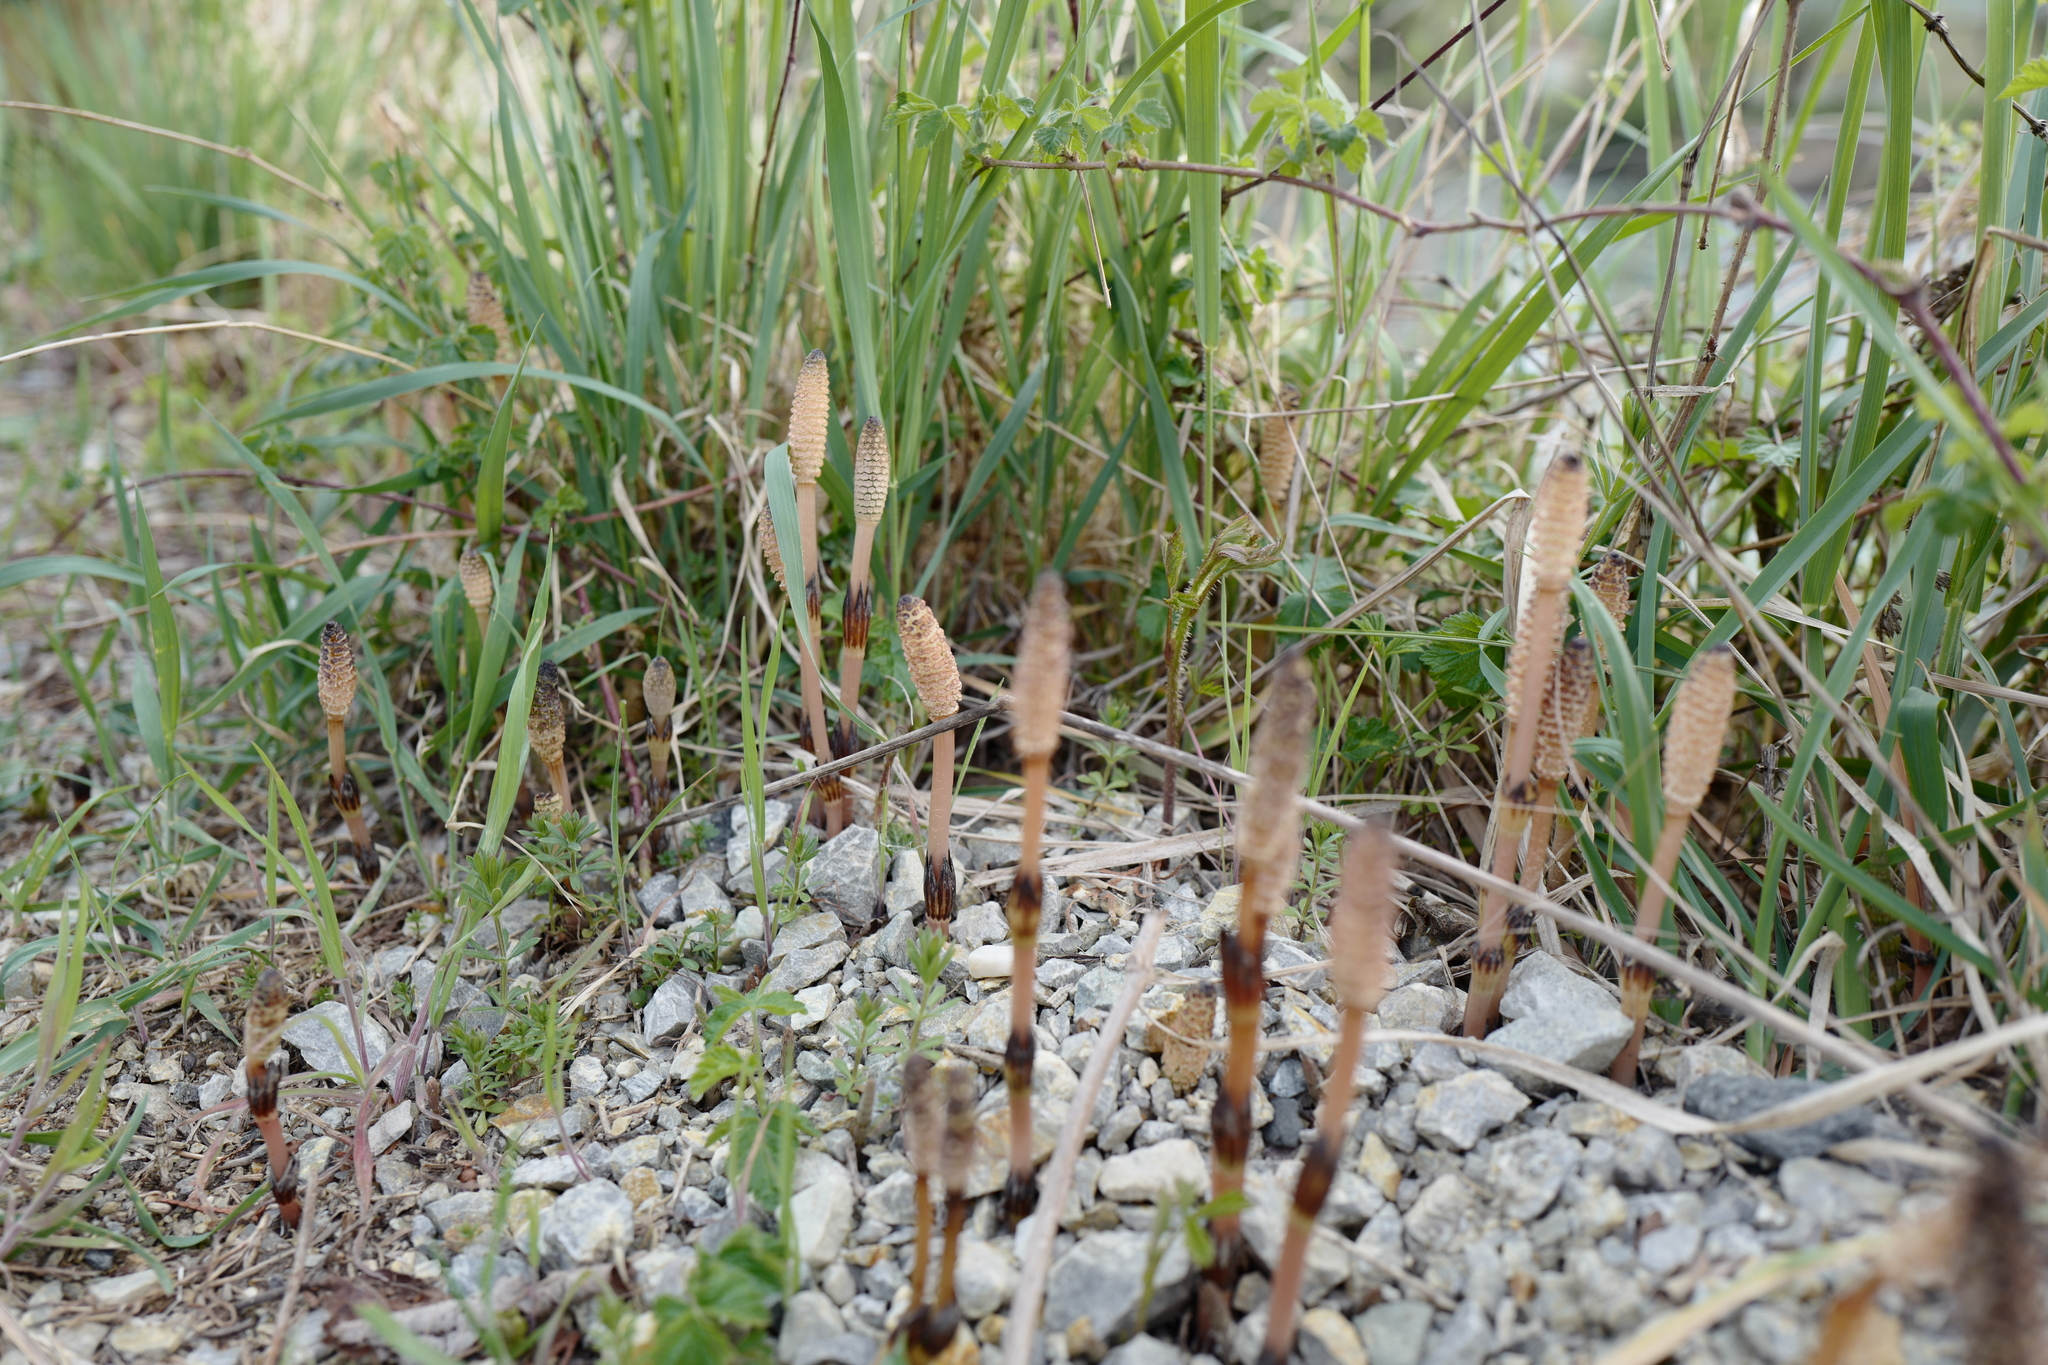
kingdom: Plantae
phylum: Tracheophyta
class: Polypodiopsida
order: Equisetales
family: Equisetaceae
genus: Equisetum
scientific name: Equisetum arvense
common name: Field horsetail
